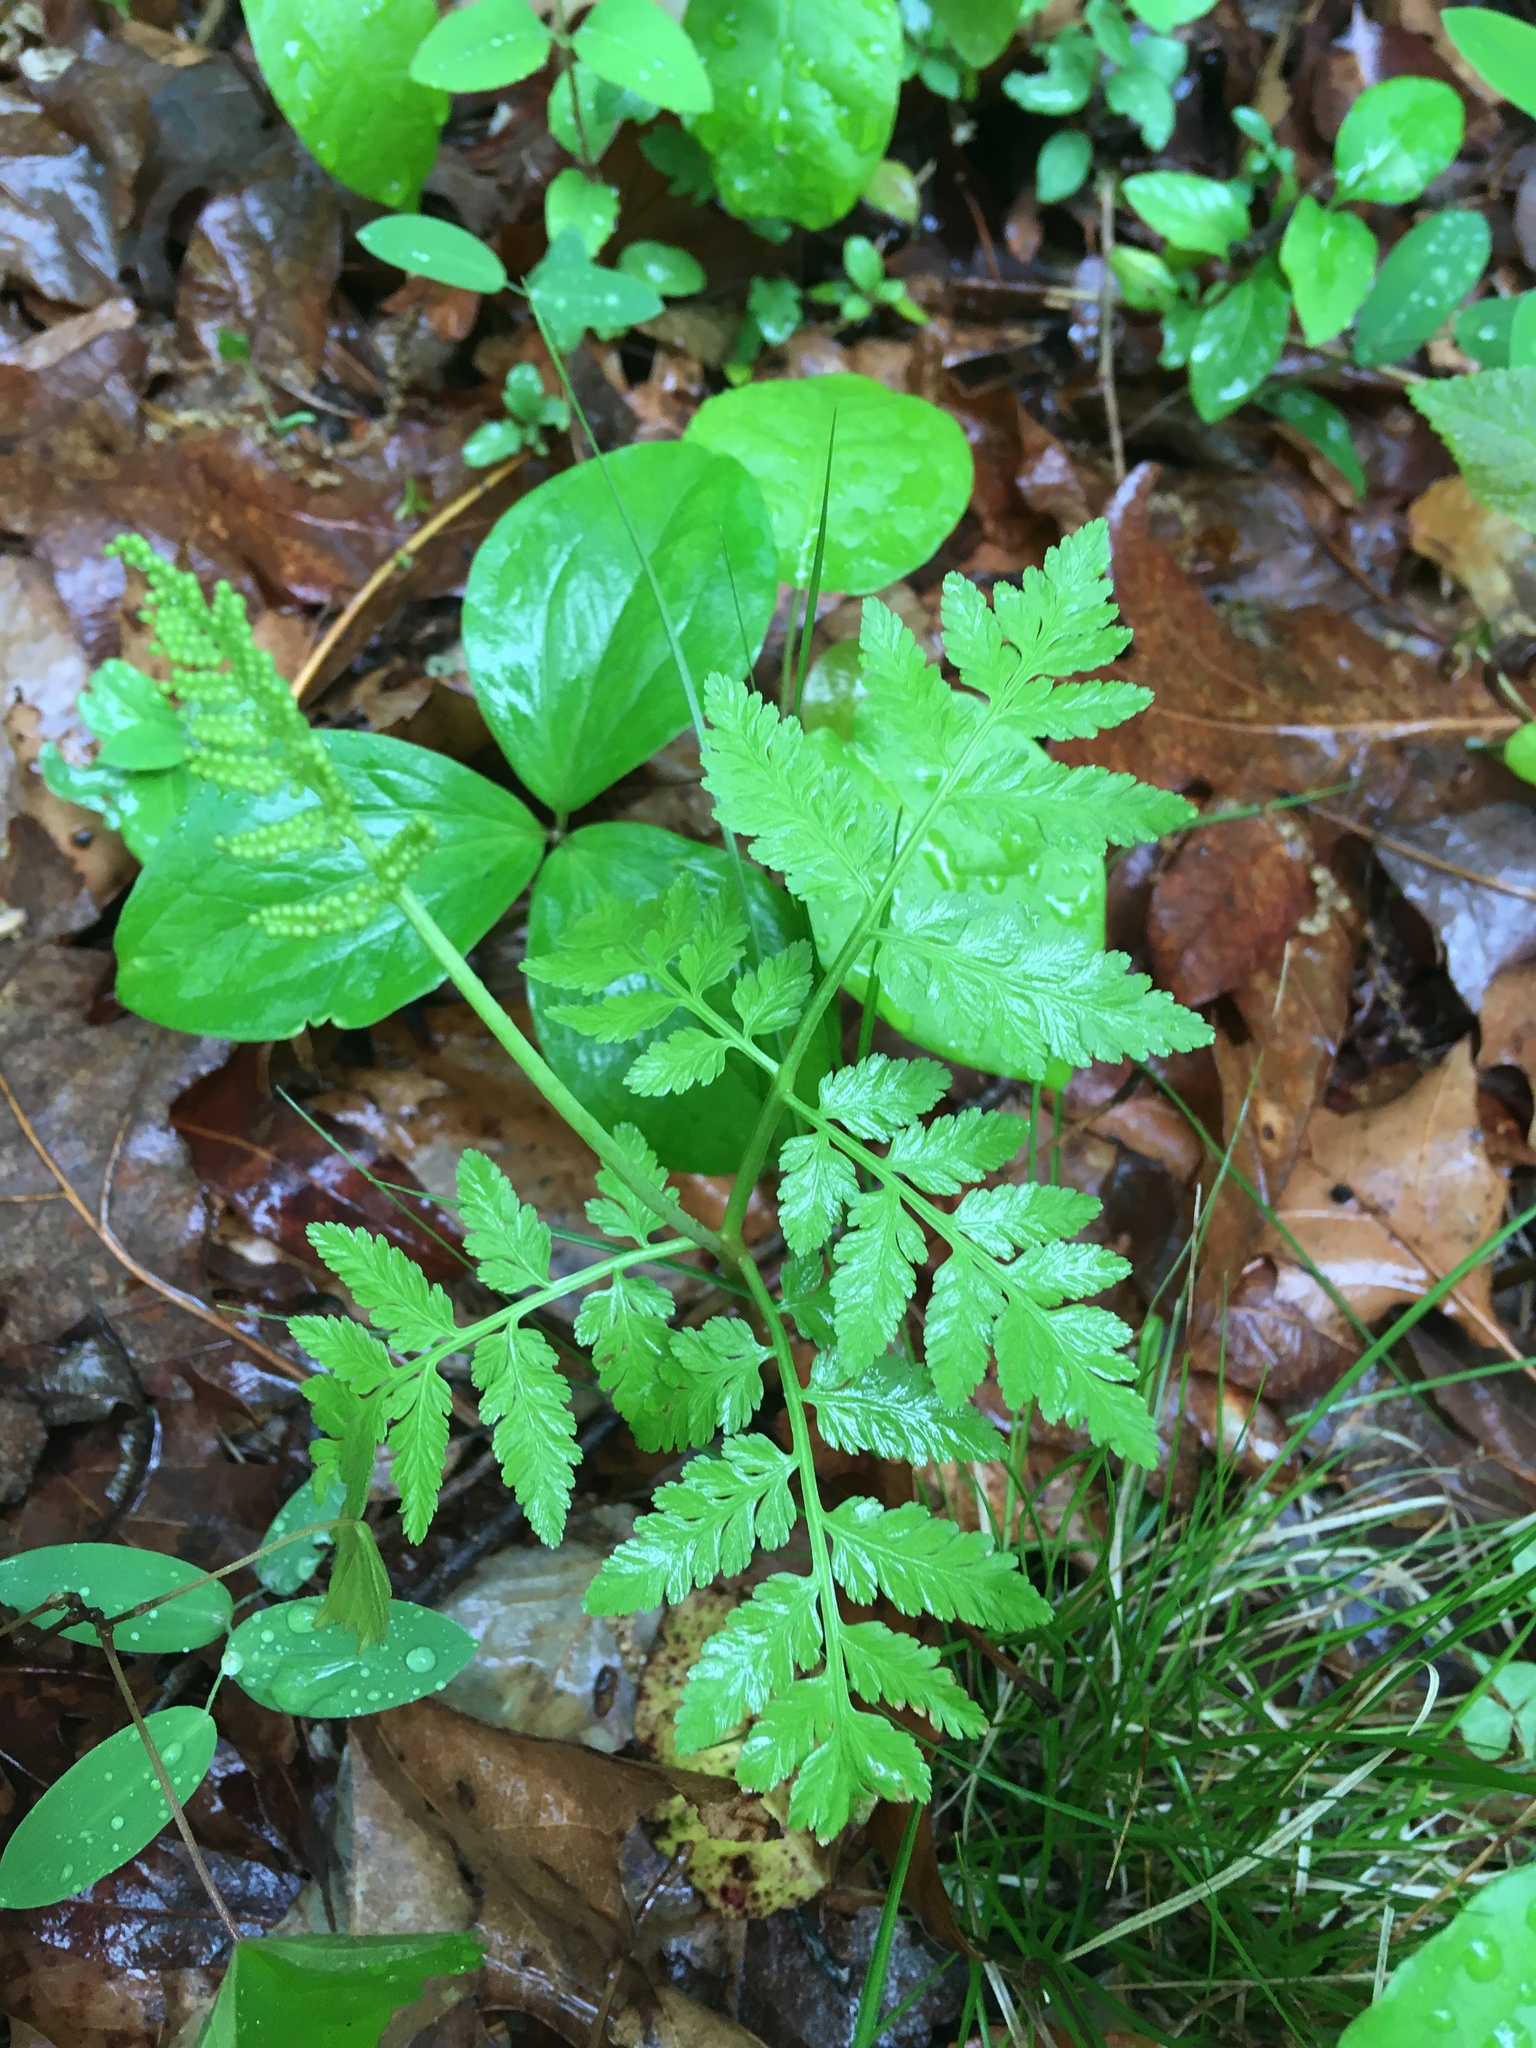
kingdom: Plantae
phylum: Tracheophyta
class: Polypodiopsida
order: Ophioglossales
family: Ophioglossaceae
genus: Botrypus
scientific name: Botrypus virginianus
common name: Common grapefern
